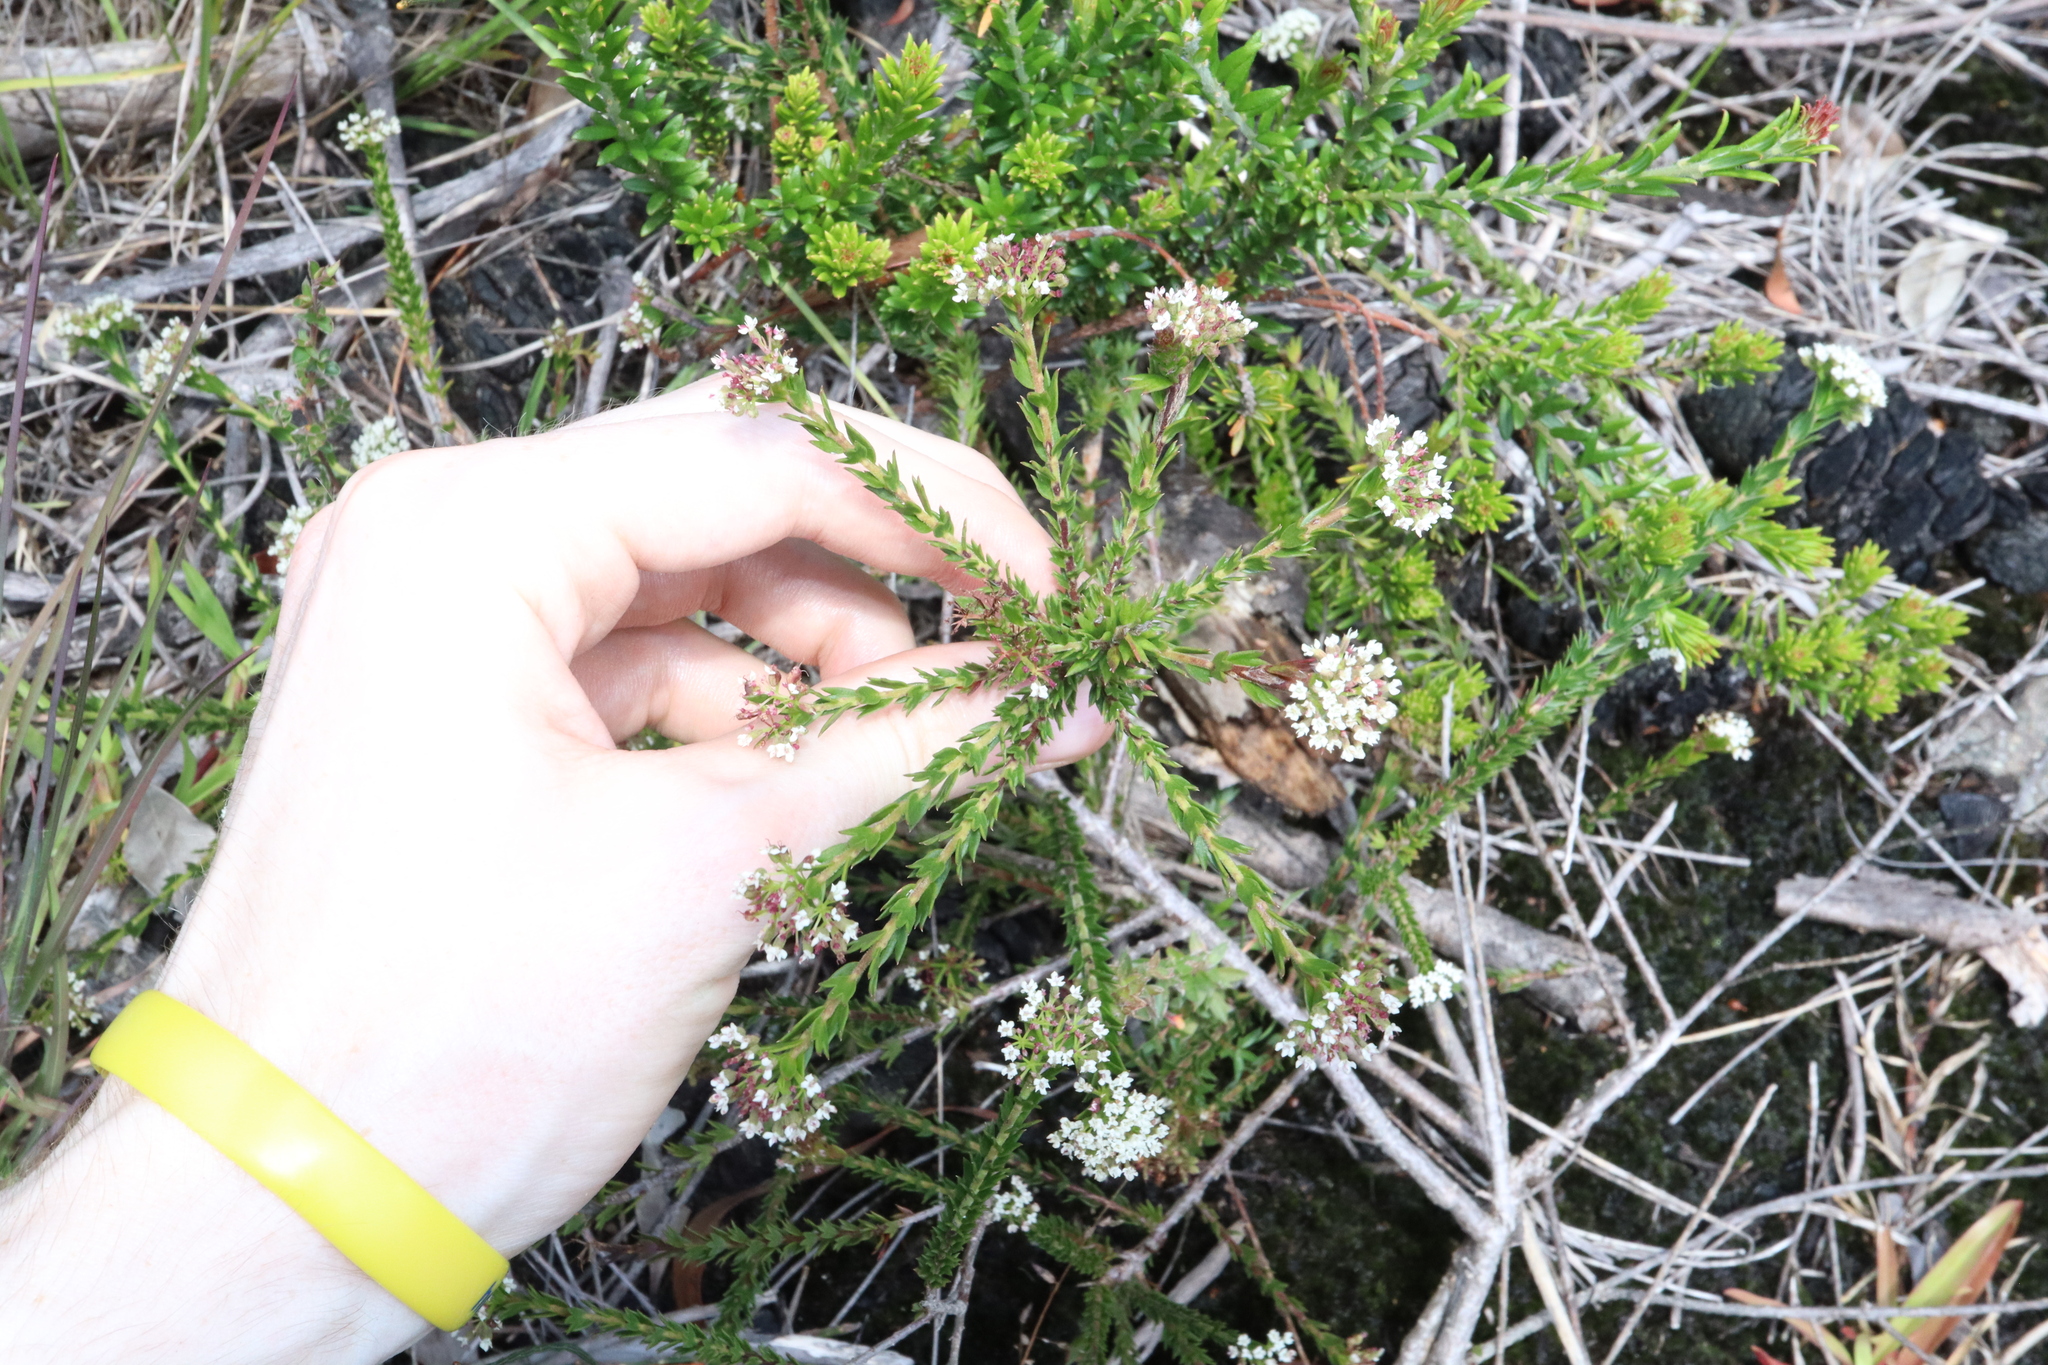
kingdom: Plantae
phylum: Tracheophyta
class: Magnoliopsida
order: Apiales
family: Apiaceae
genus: Platysace
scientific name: Platysace stephensonii
